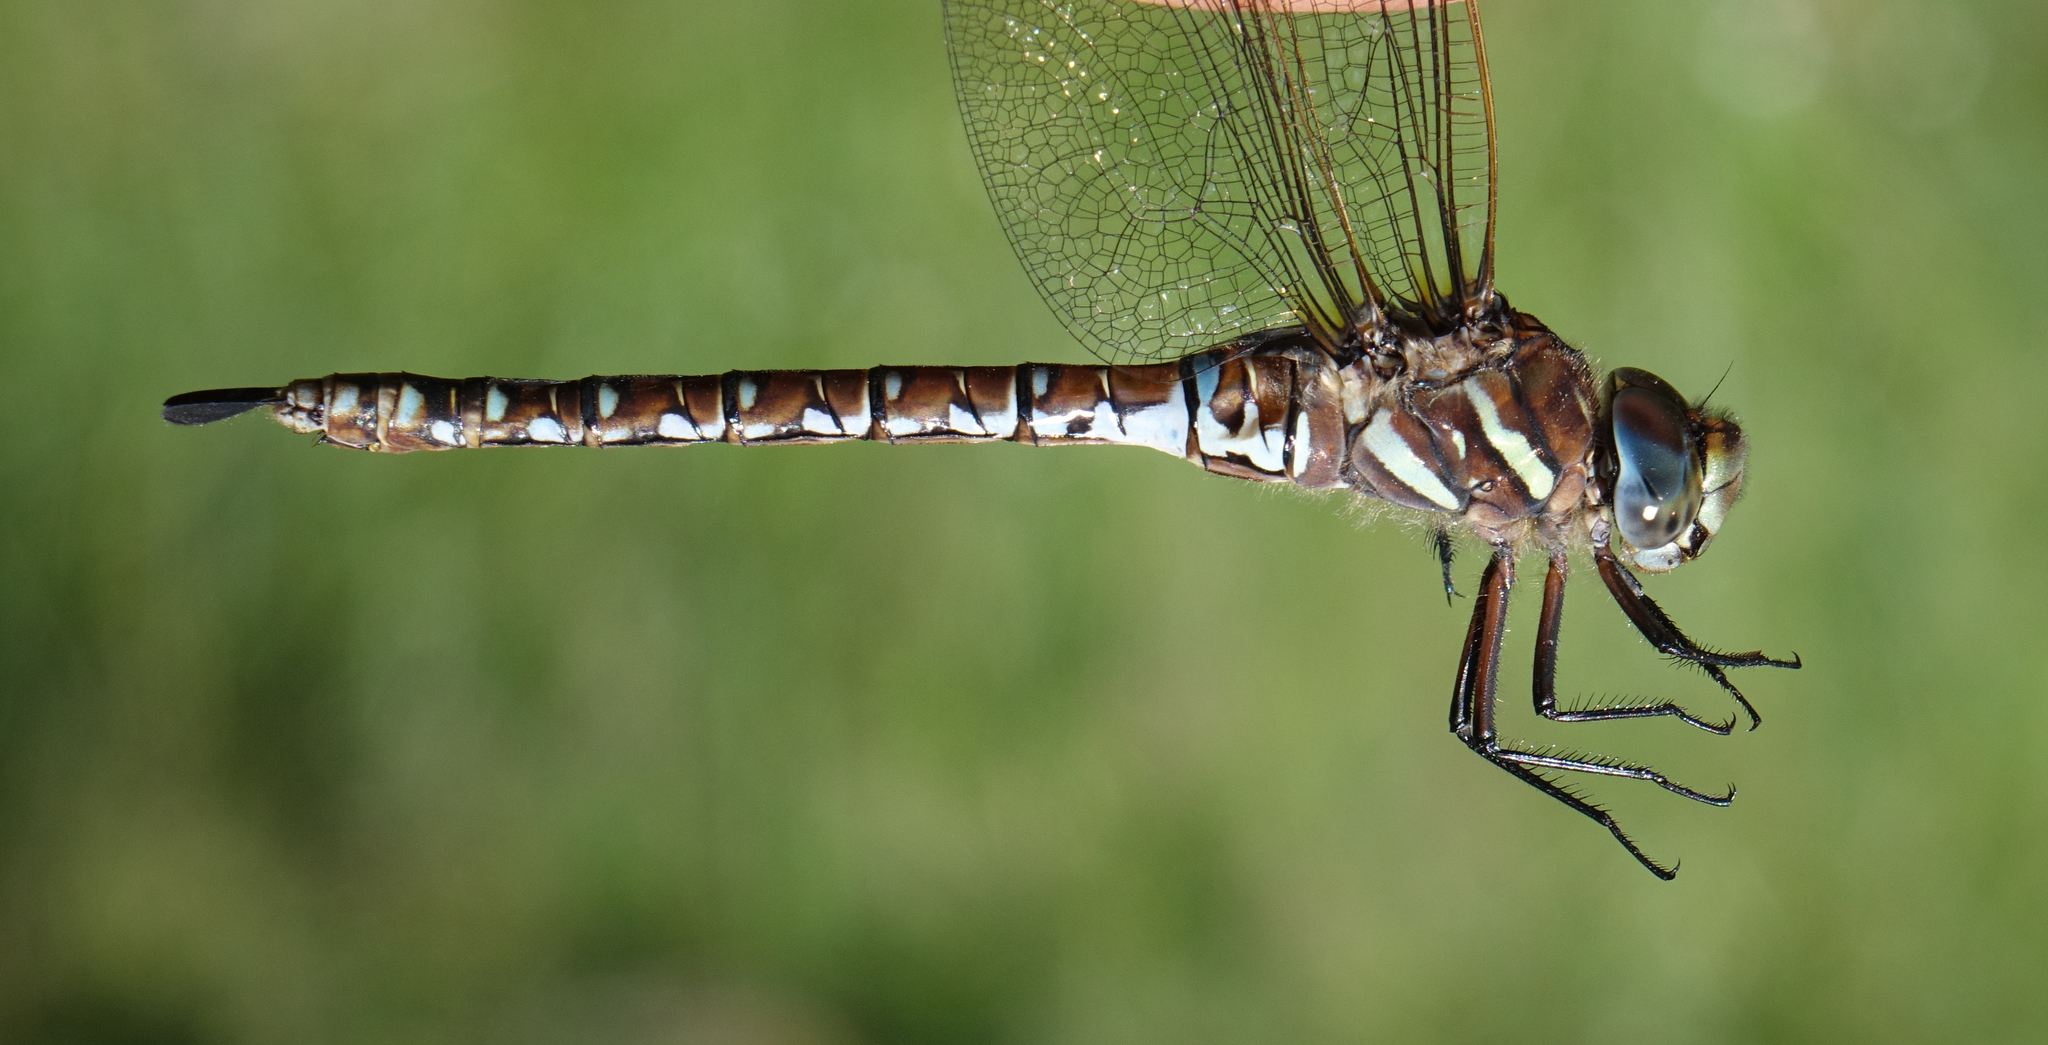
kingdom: Animalia
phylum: Arthropoda
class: Insecta
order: Odonata
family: Aeshnidae
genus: Aeshna
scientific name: Aeshna juncea
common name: Moorland hawker
